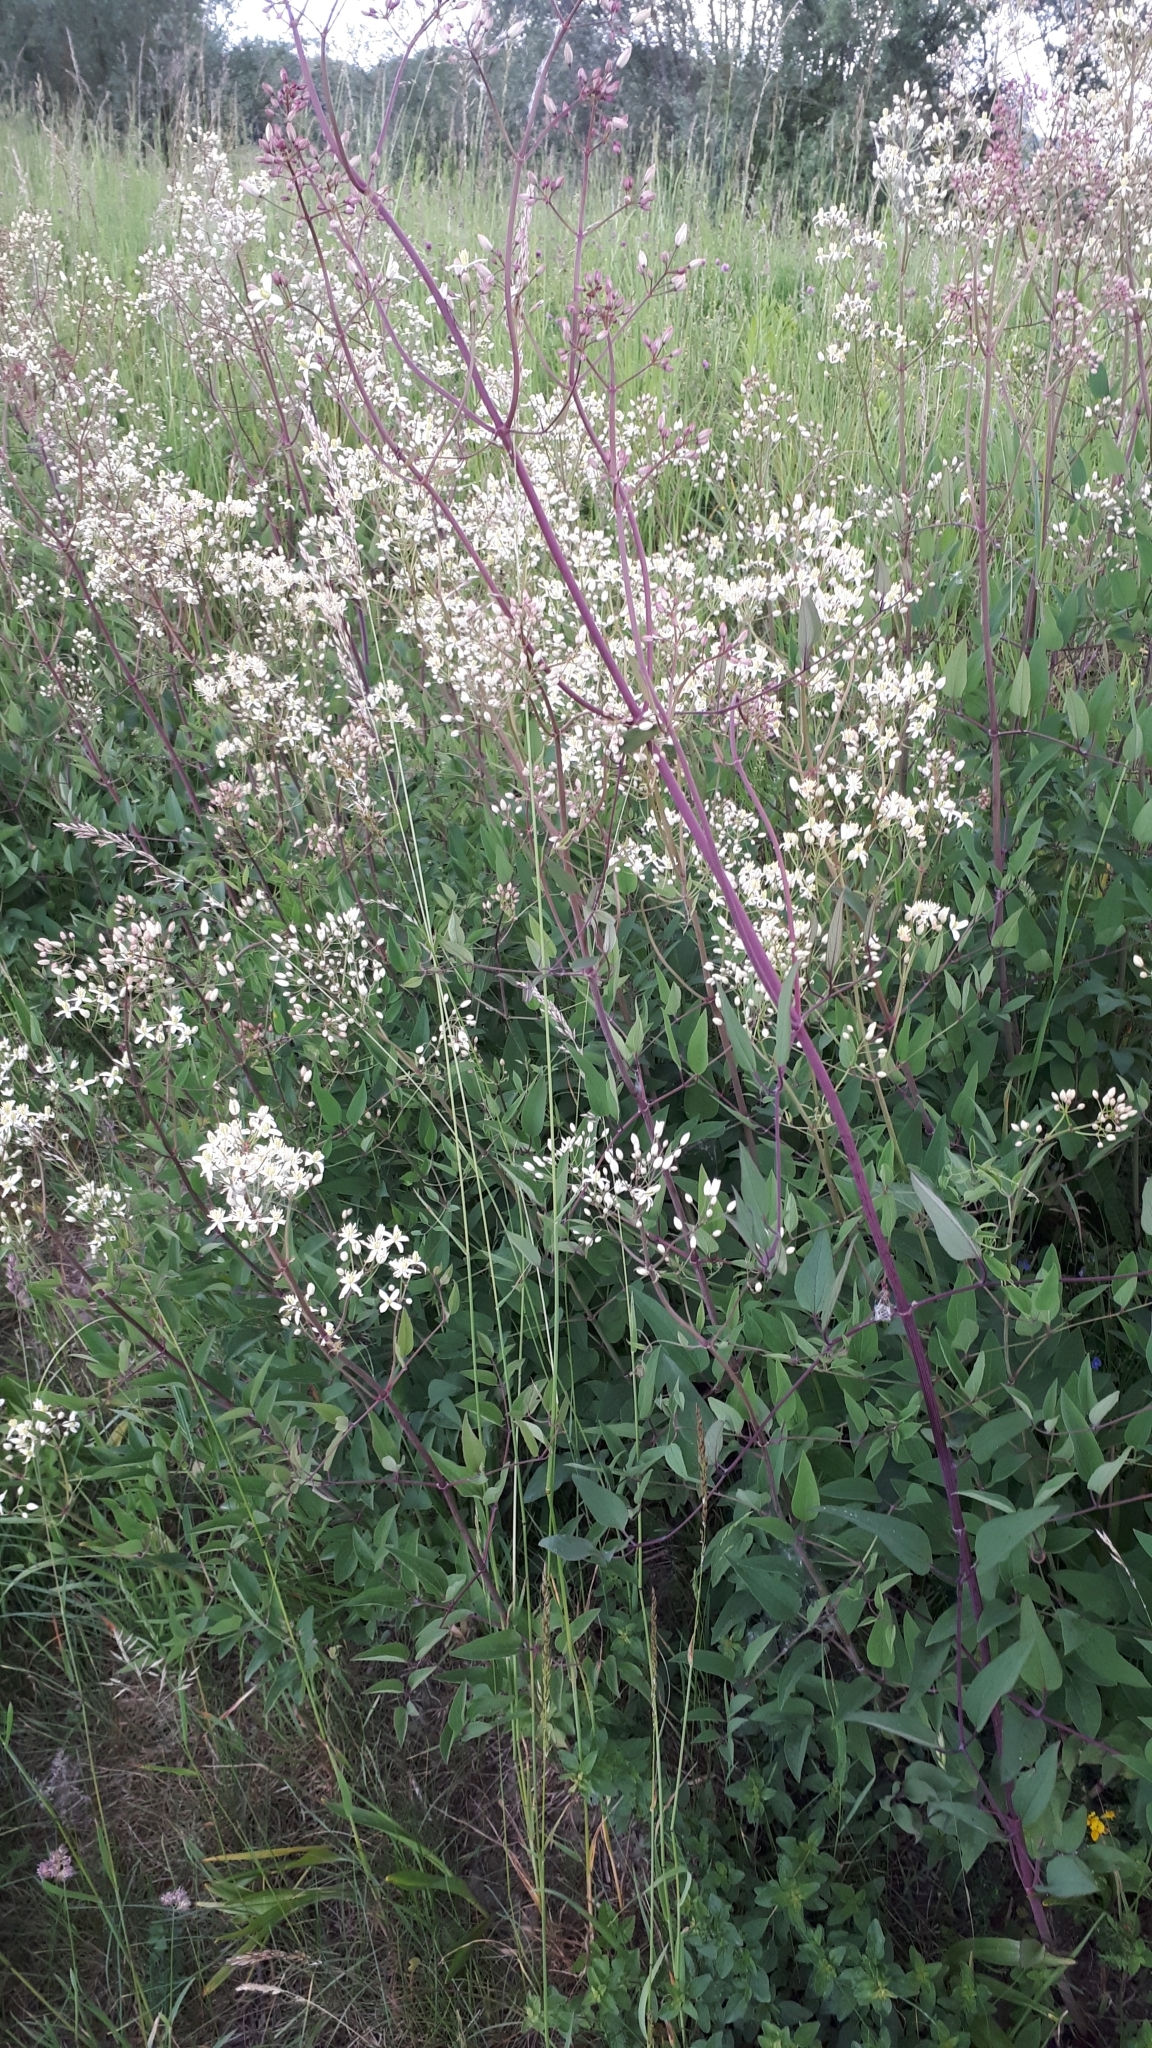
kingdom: Plantae
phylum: Tracheophyta
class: Magnoliopsida
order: Ranunculales
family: Ranunculaceae
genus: Clematis
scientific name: Clematis recta
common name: Ground clematis
